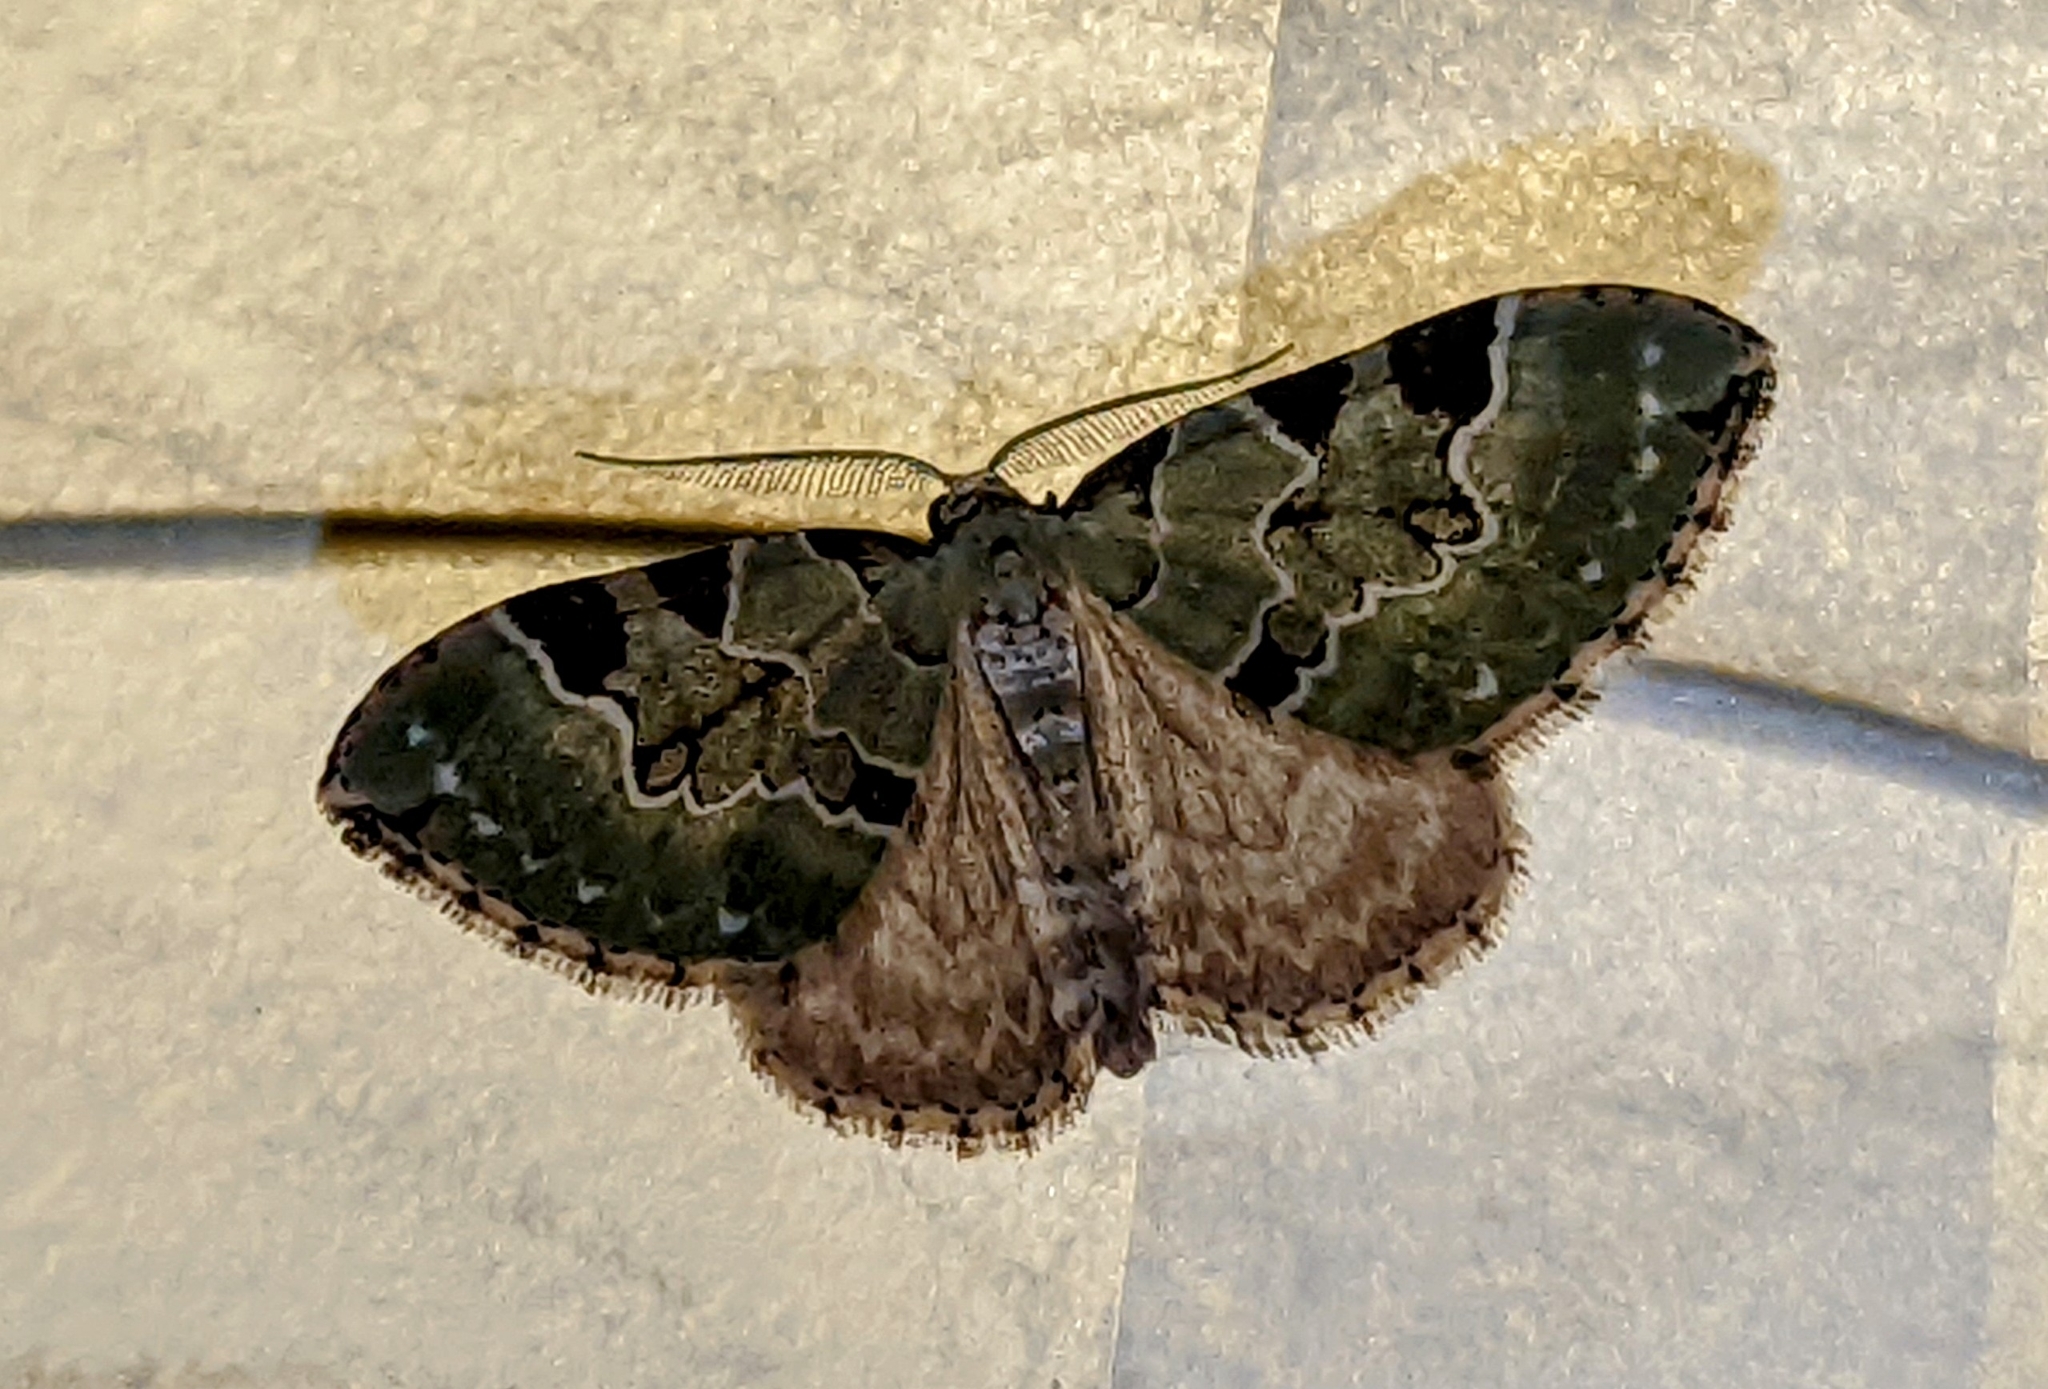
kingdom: Animalia
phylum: Arthropoda
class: Insecta
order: Lepidoptera
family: Geometridae
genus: Colostygia
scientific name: Colostygia pectinataria
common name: Green carpet
